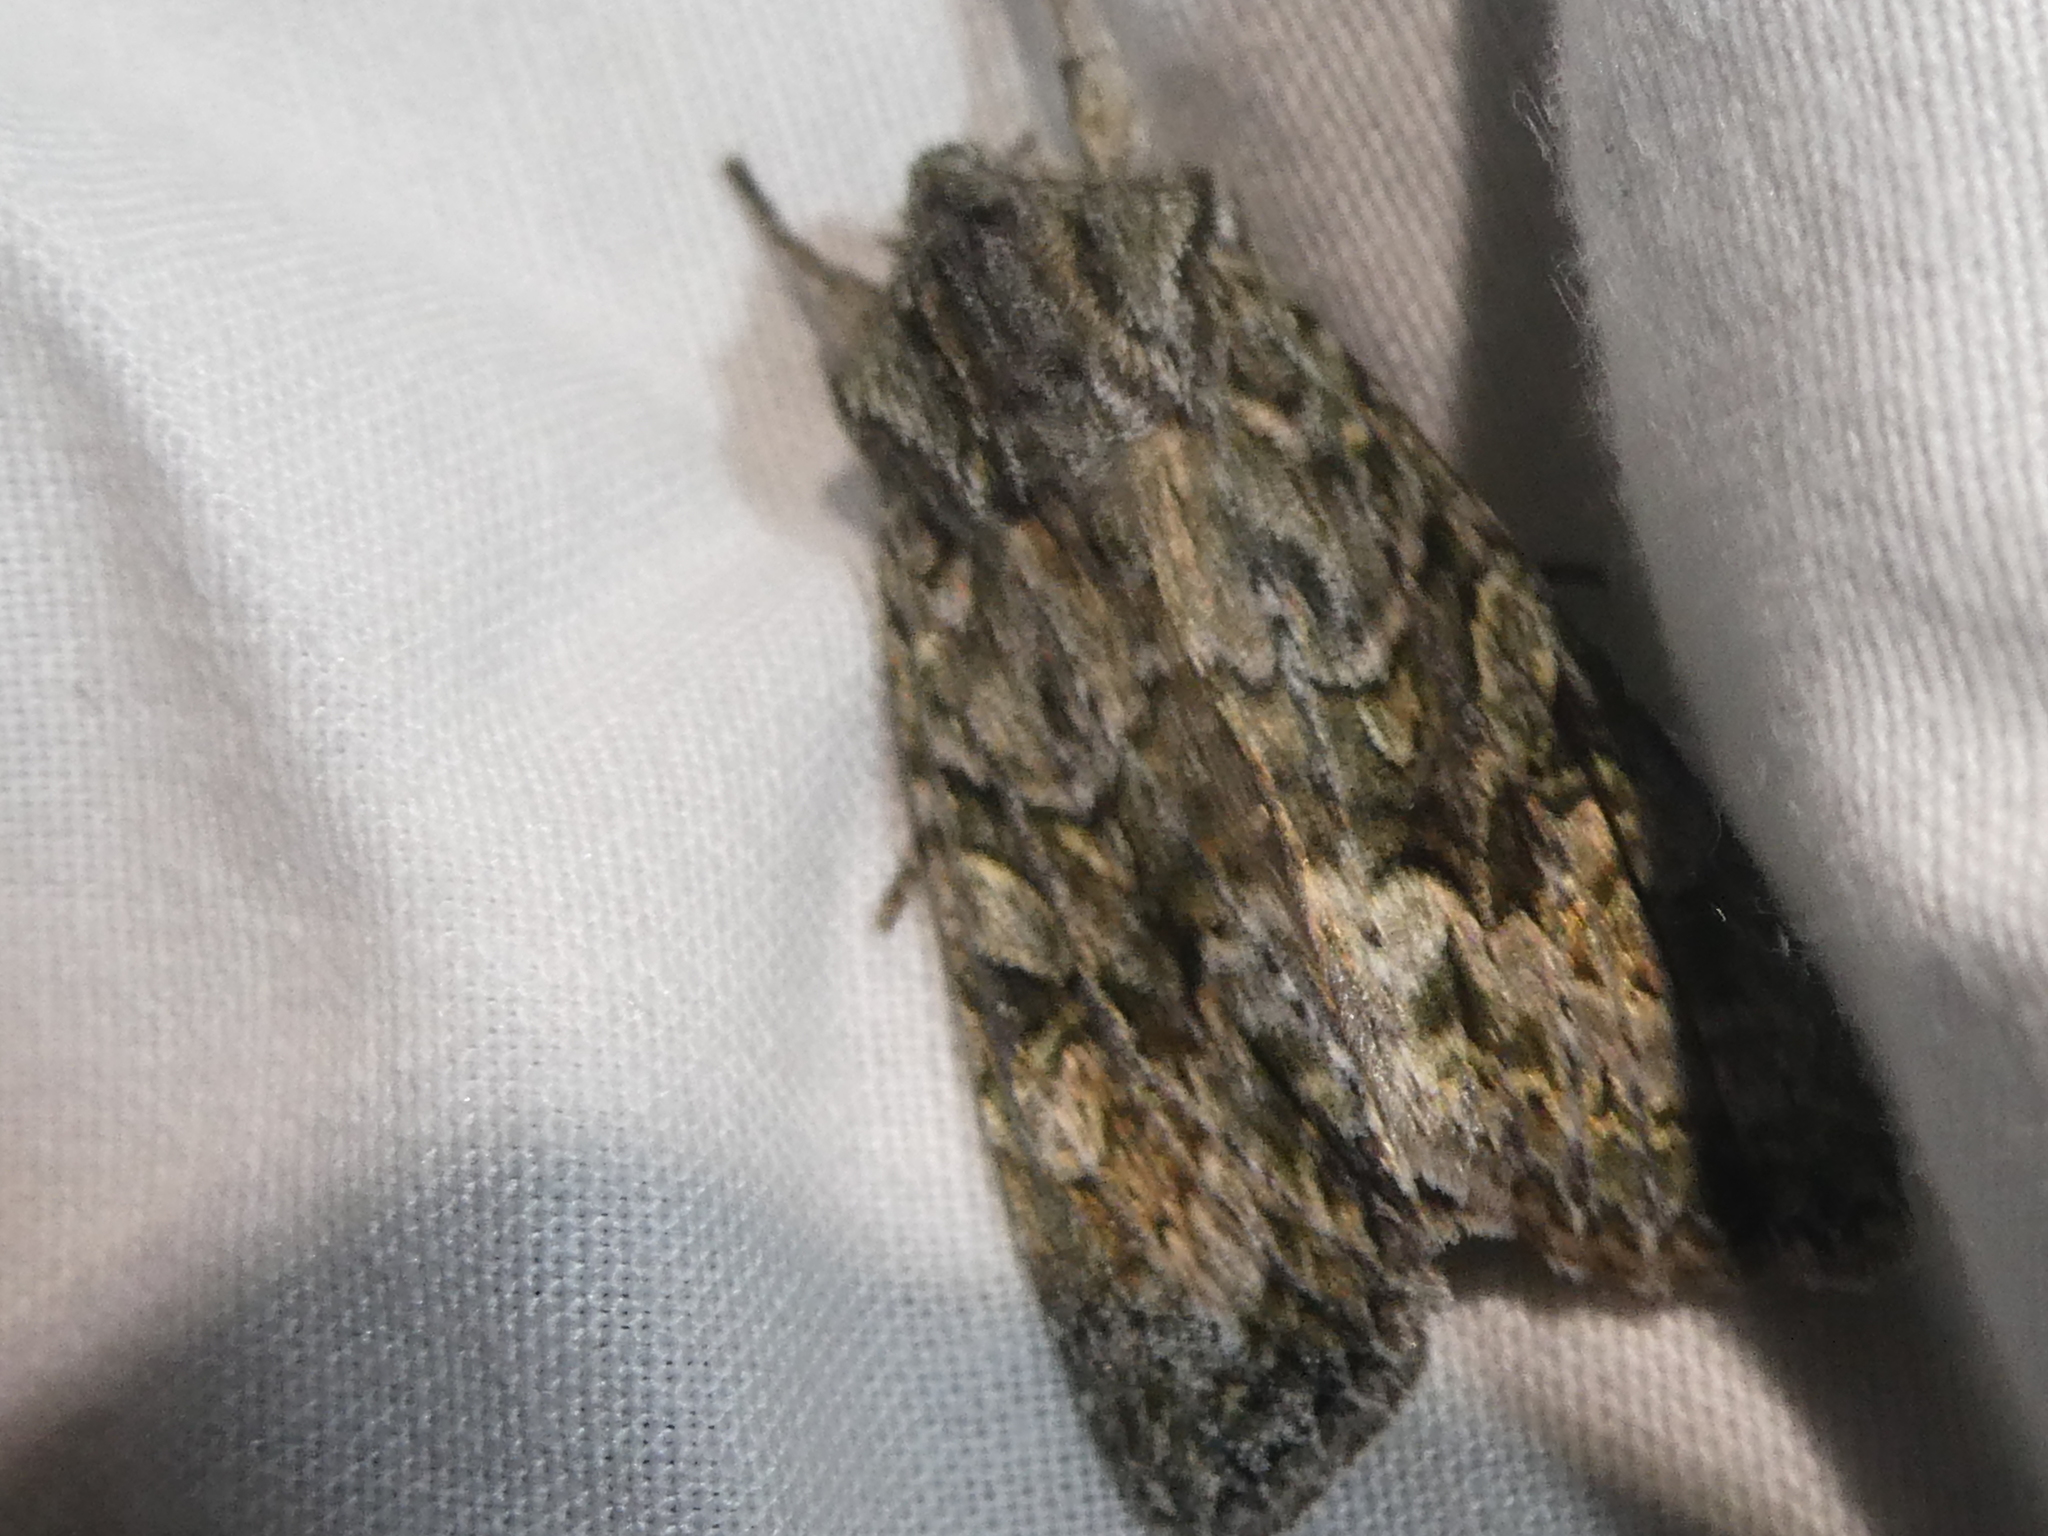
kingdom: Animalia
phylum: Arthropoda
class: Insecta
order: Lepidoptera
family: Noctuidae
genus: Ichneutica
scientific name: Ichneutica mutans
